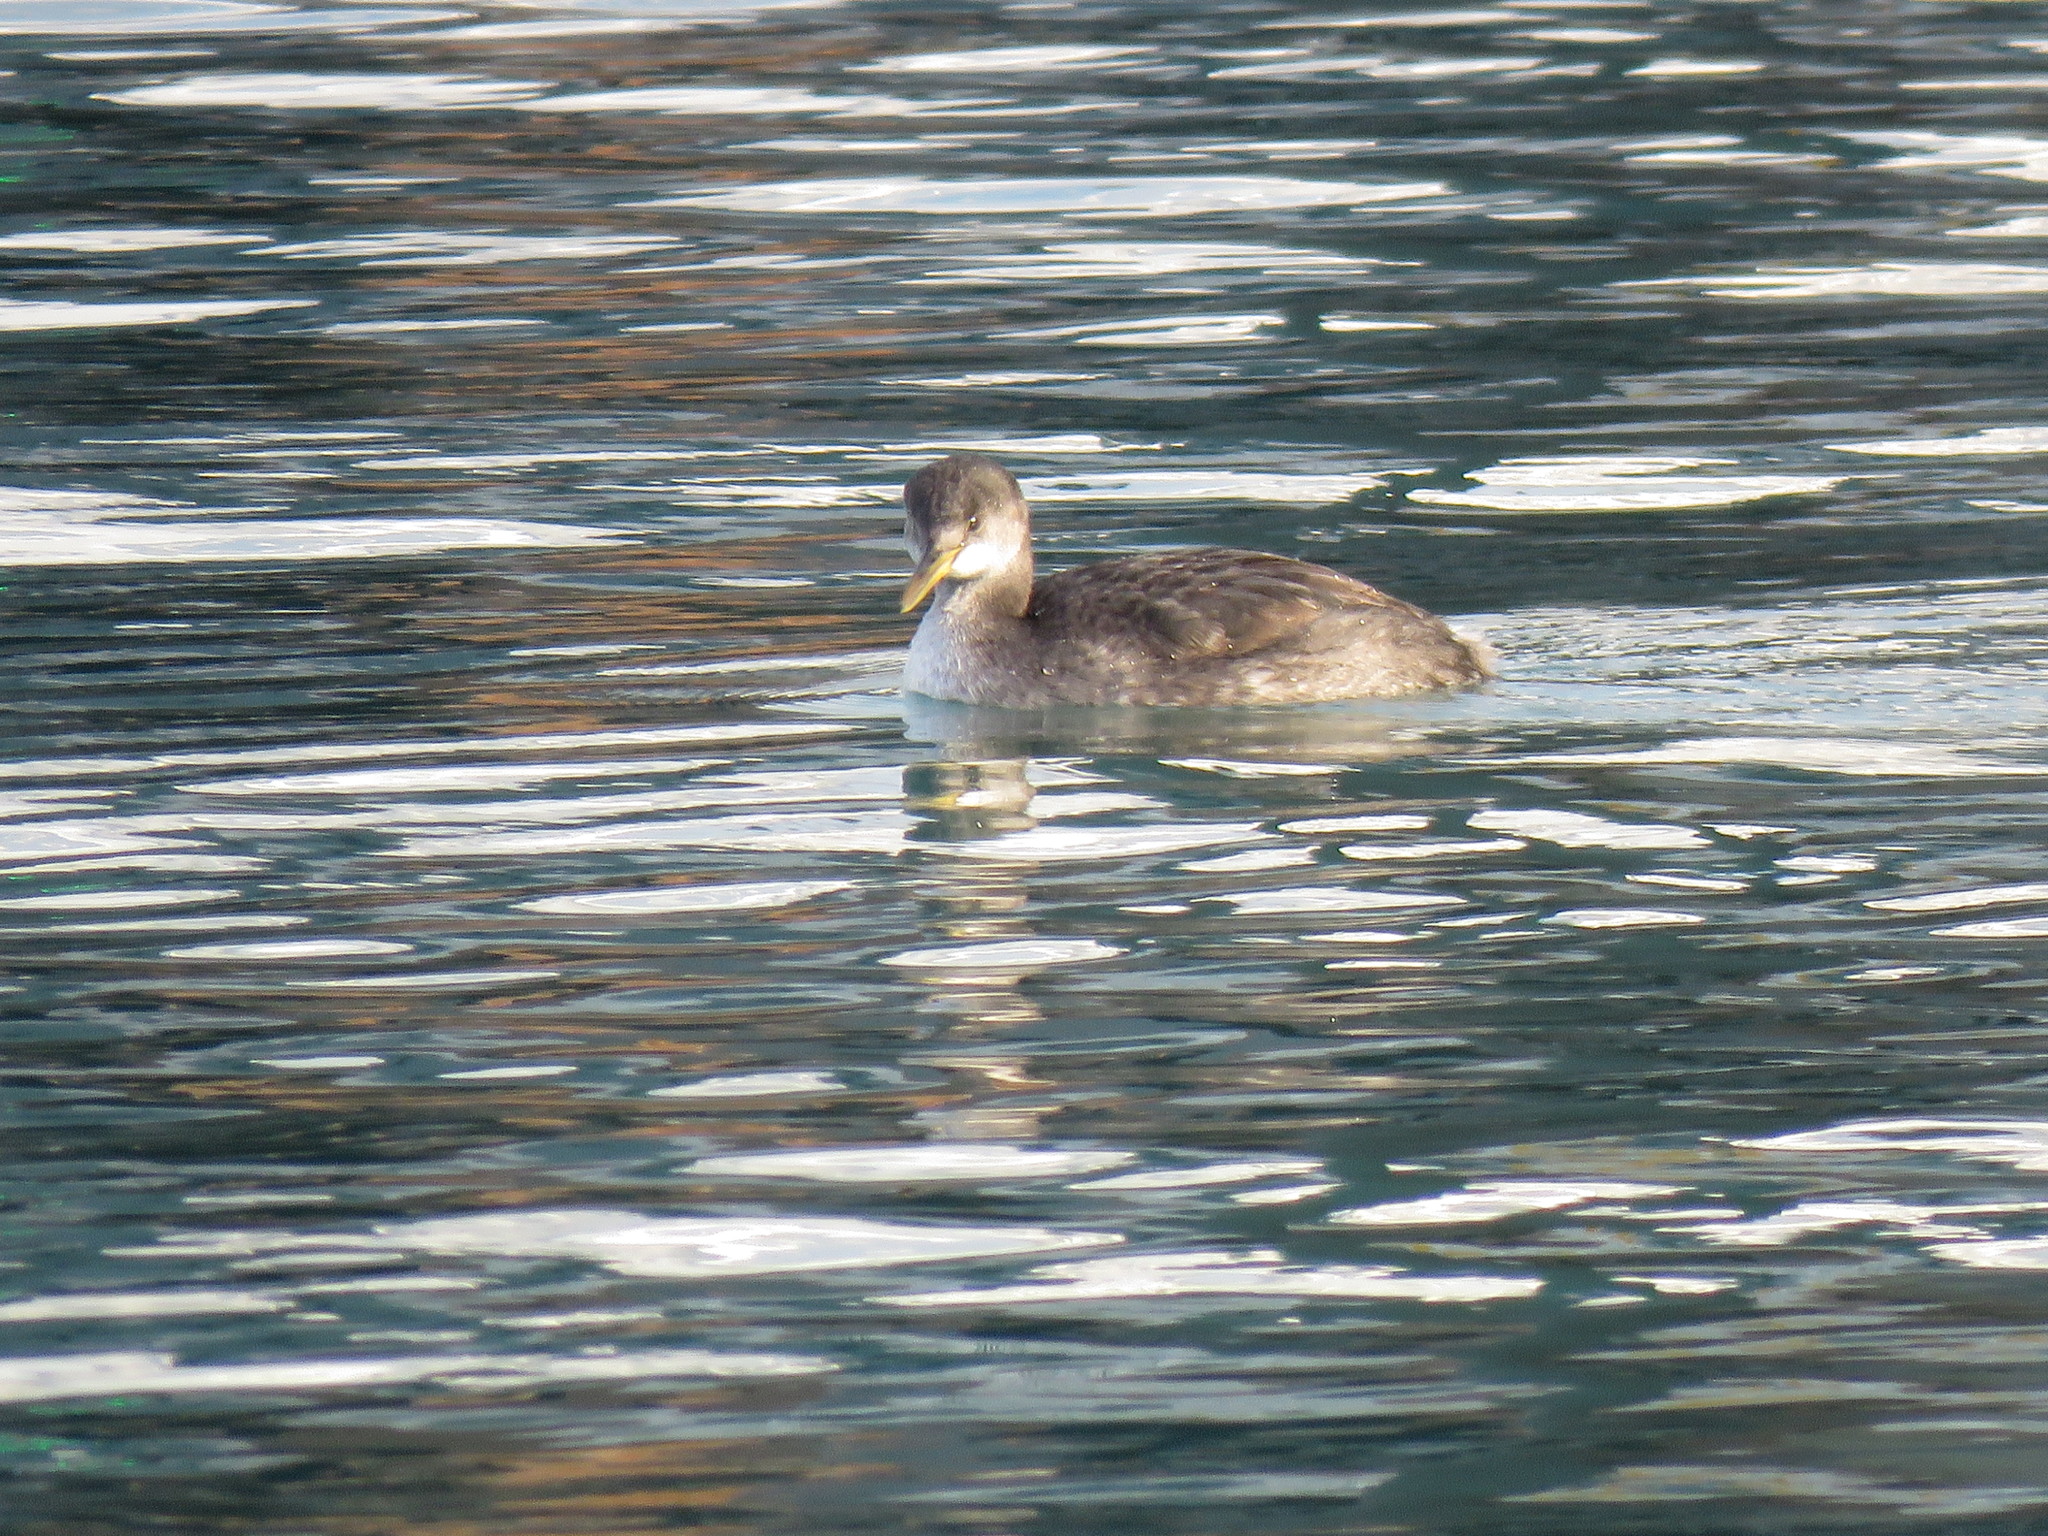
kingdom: Animalia
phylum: Chordata
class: Aves
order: Podicipediformes
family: Podicipedidae
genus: Podiceps
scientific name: Podiceps grisegena
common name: Red-necked grebe
